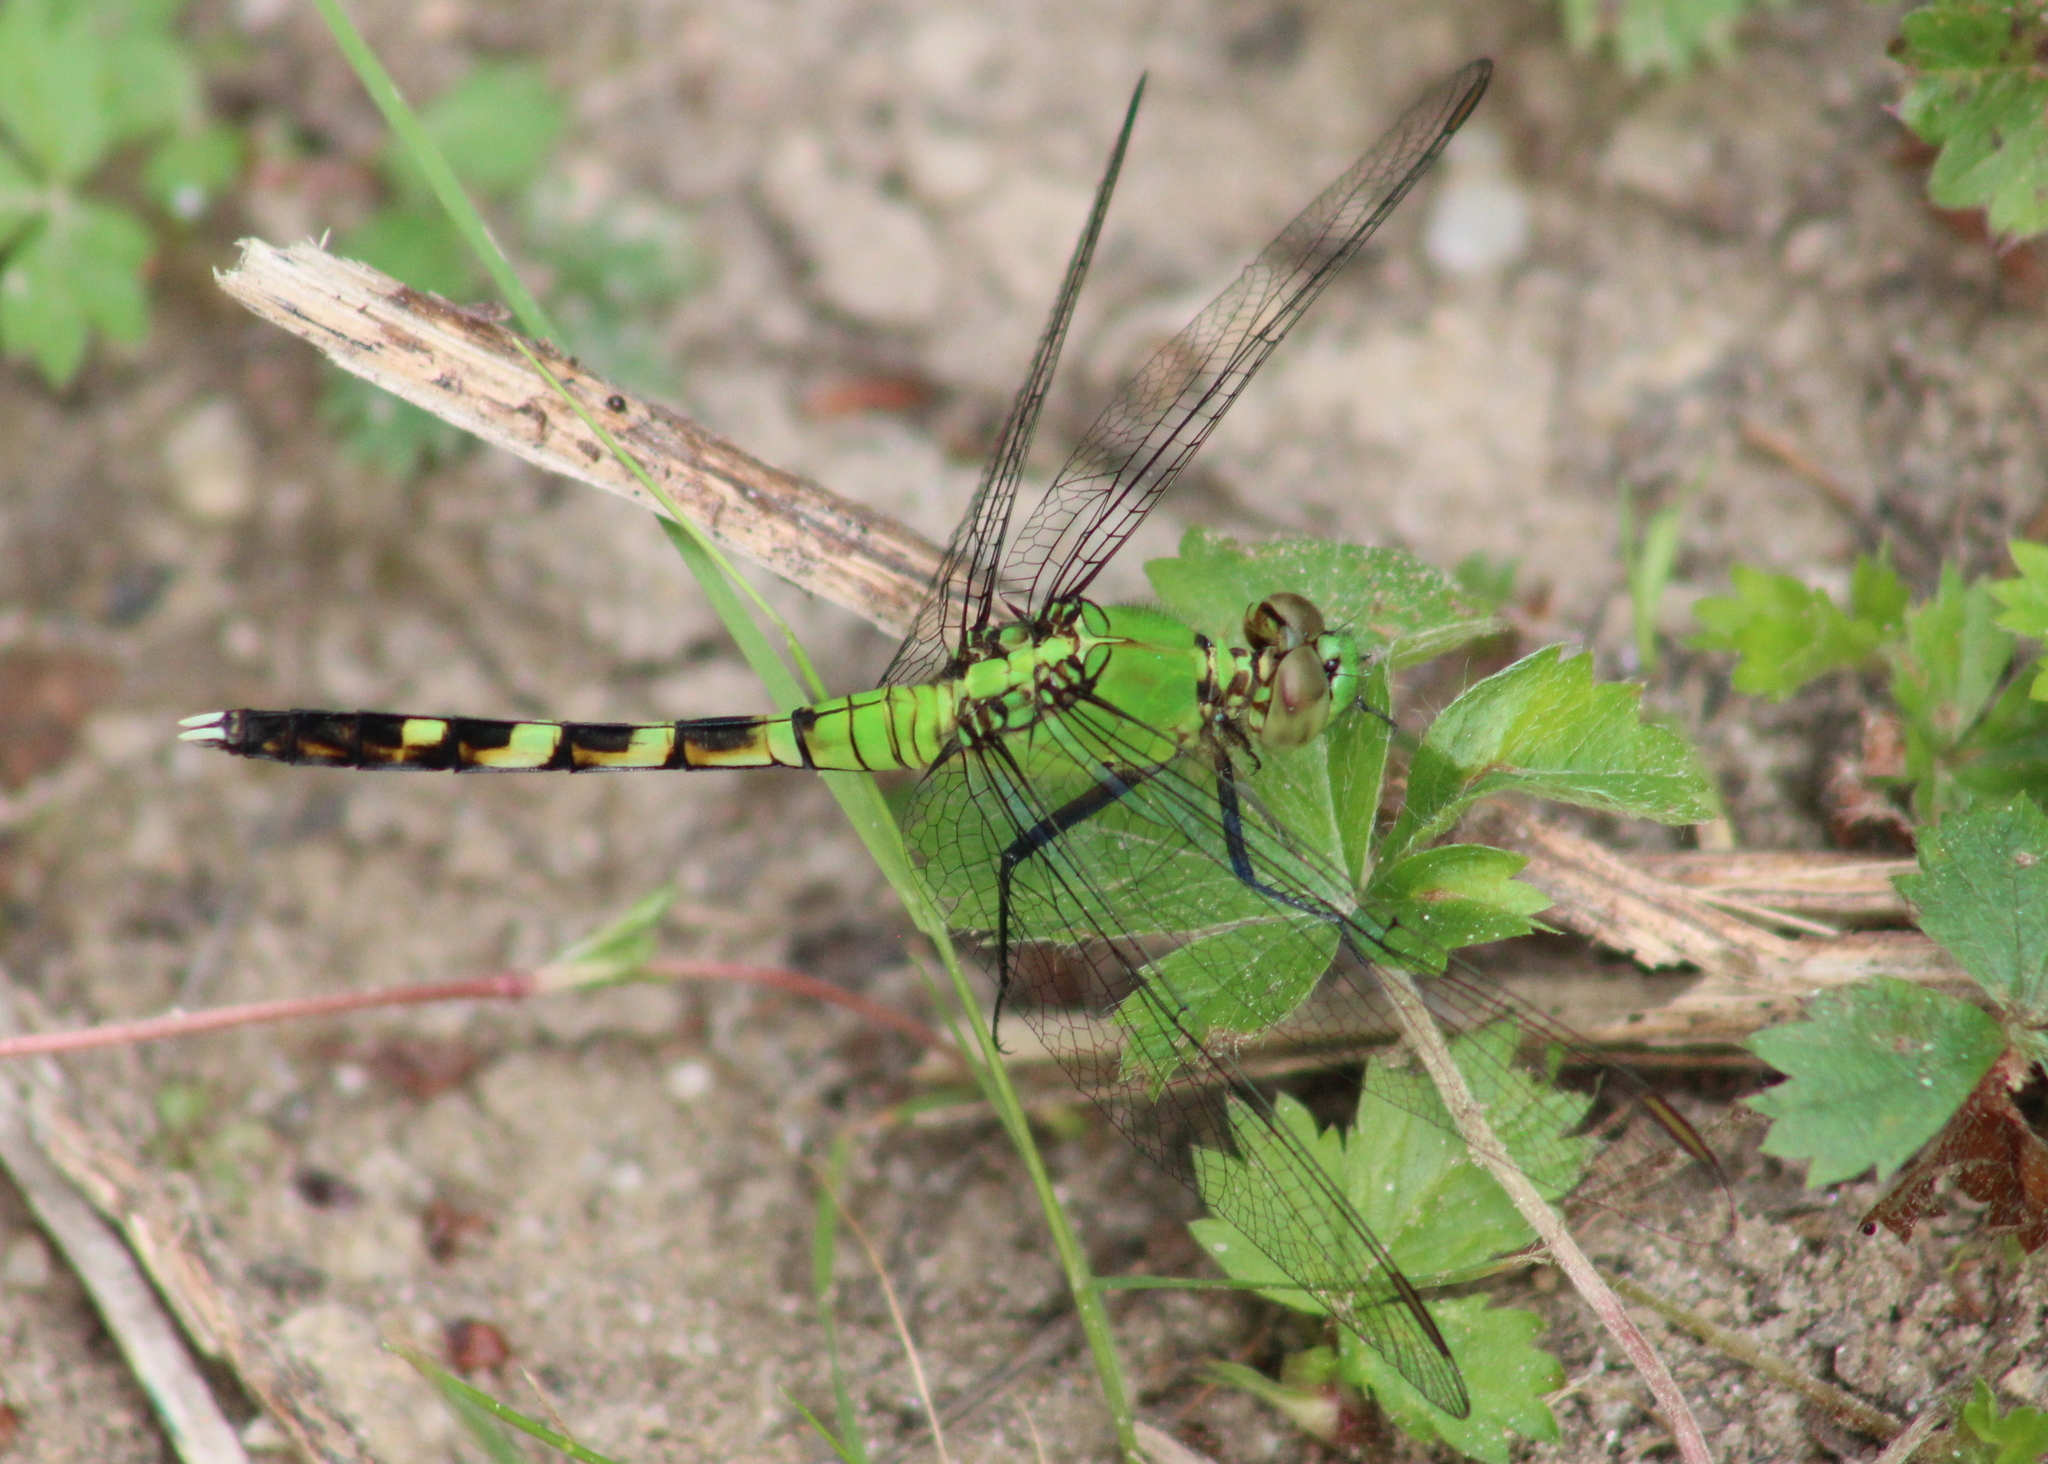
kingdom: Animalia
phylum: Arthropoda
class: Insecta
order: Odonata
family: Libellulidae
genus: Erythemis
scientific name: Erythemis simplicicollis
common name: Eastern pondhawk
